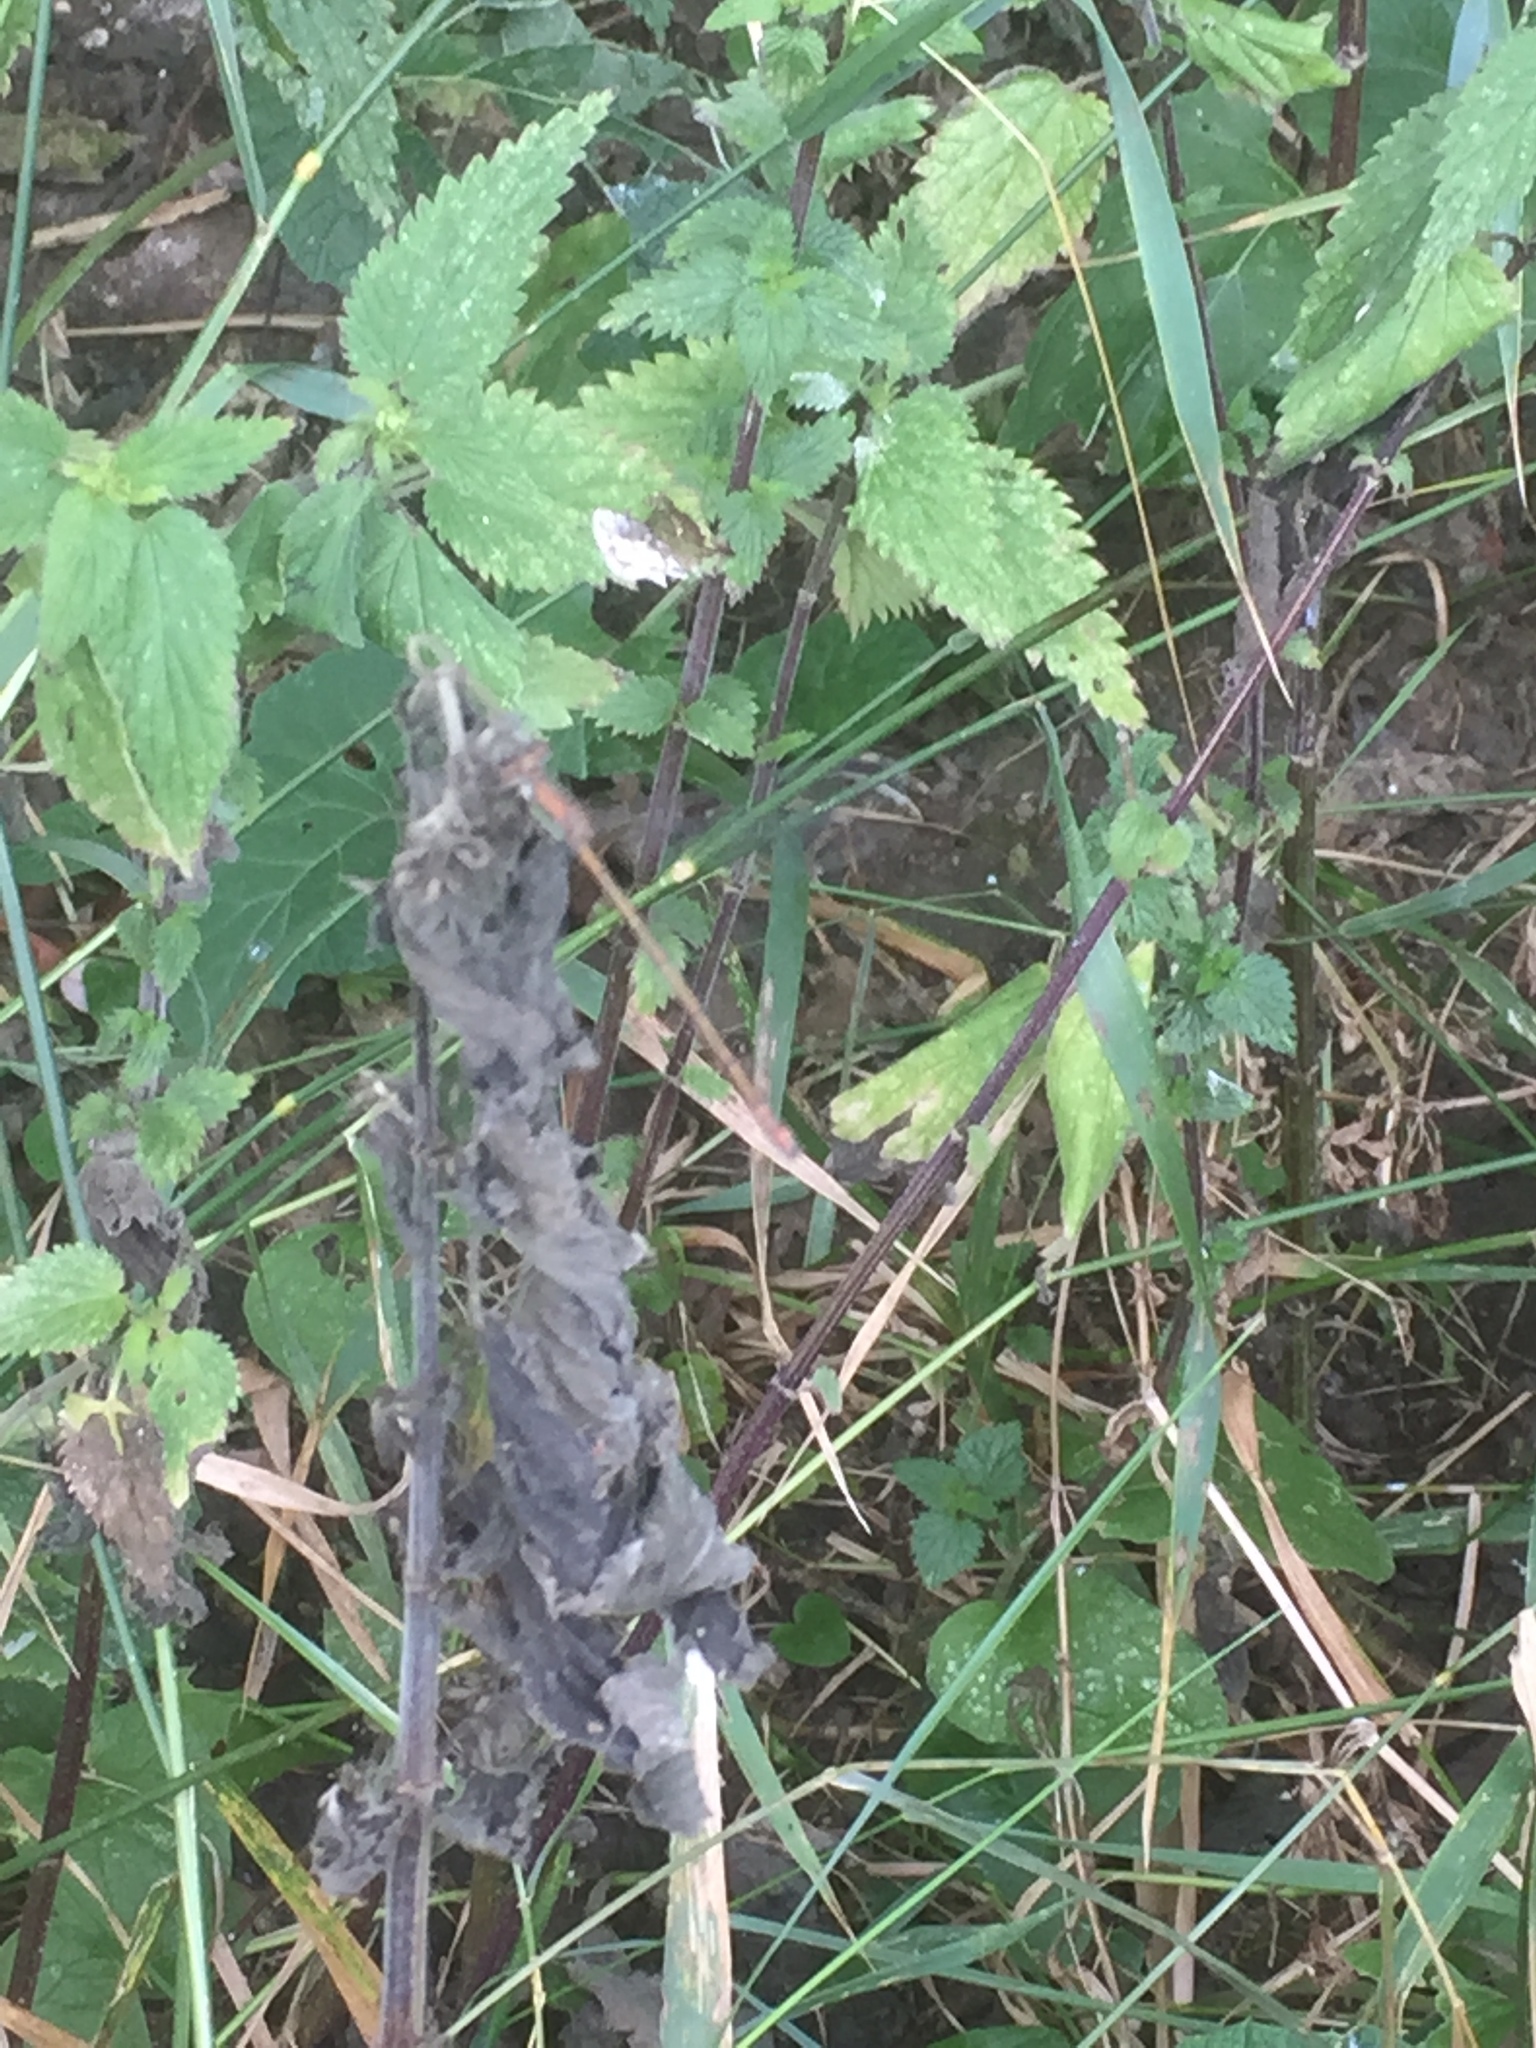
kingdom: Plantae
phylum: Tracheophyta
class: Magnoliopsida
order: Rosales
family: Urticaceae
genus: Urtica
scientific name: Urtica dioica
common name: Common nettle
